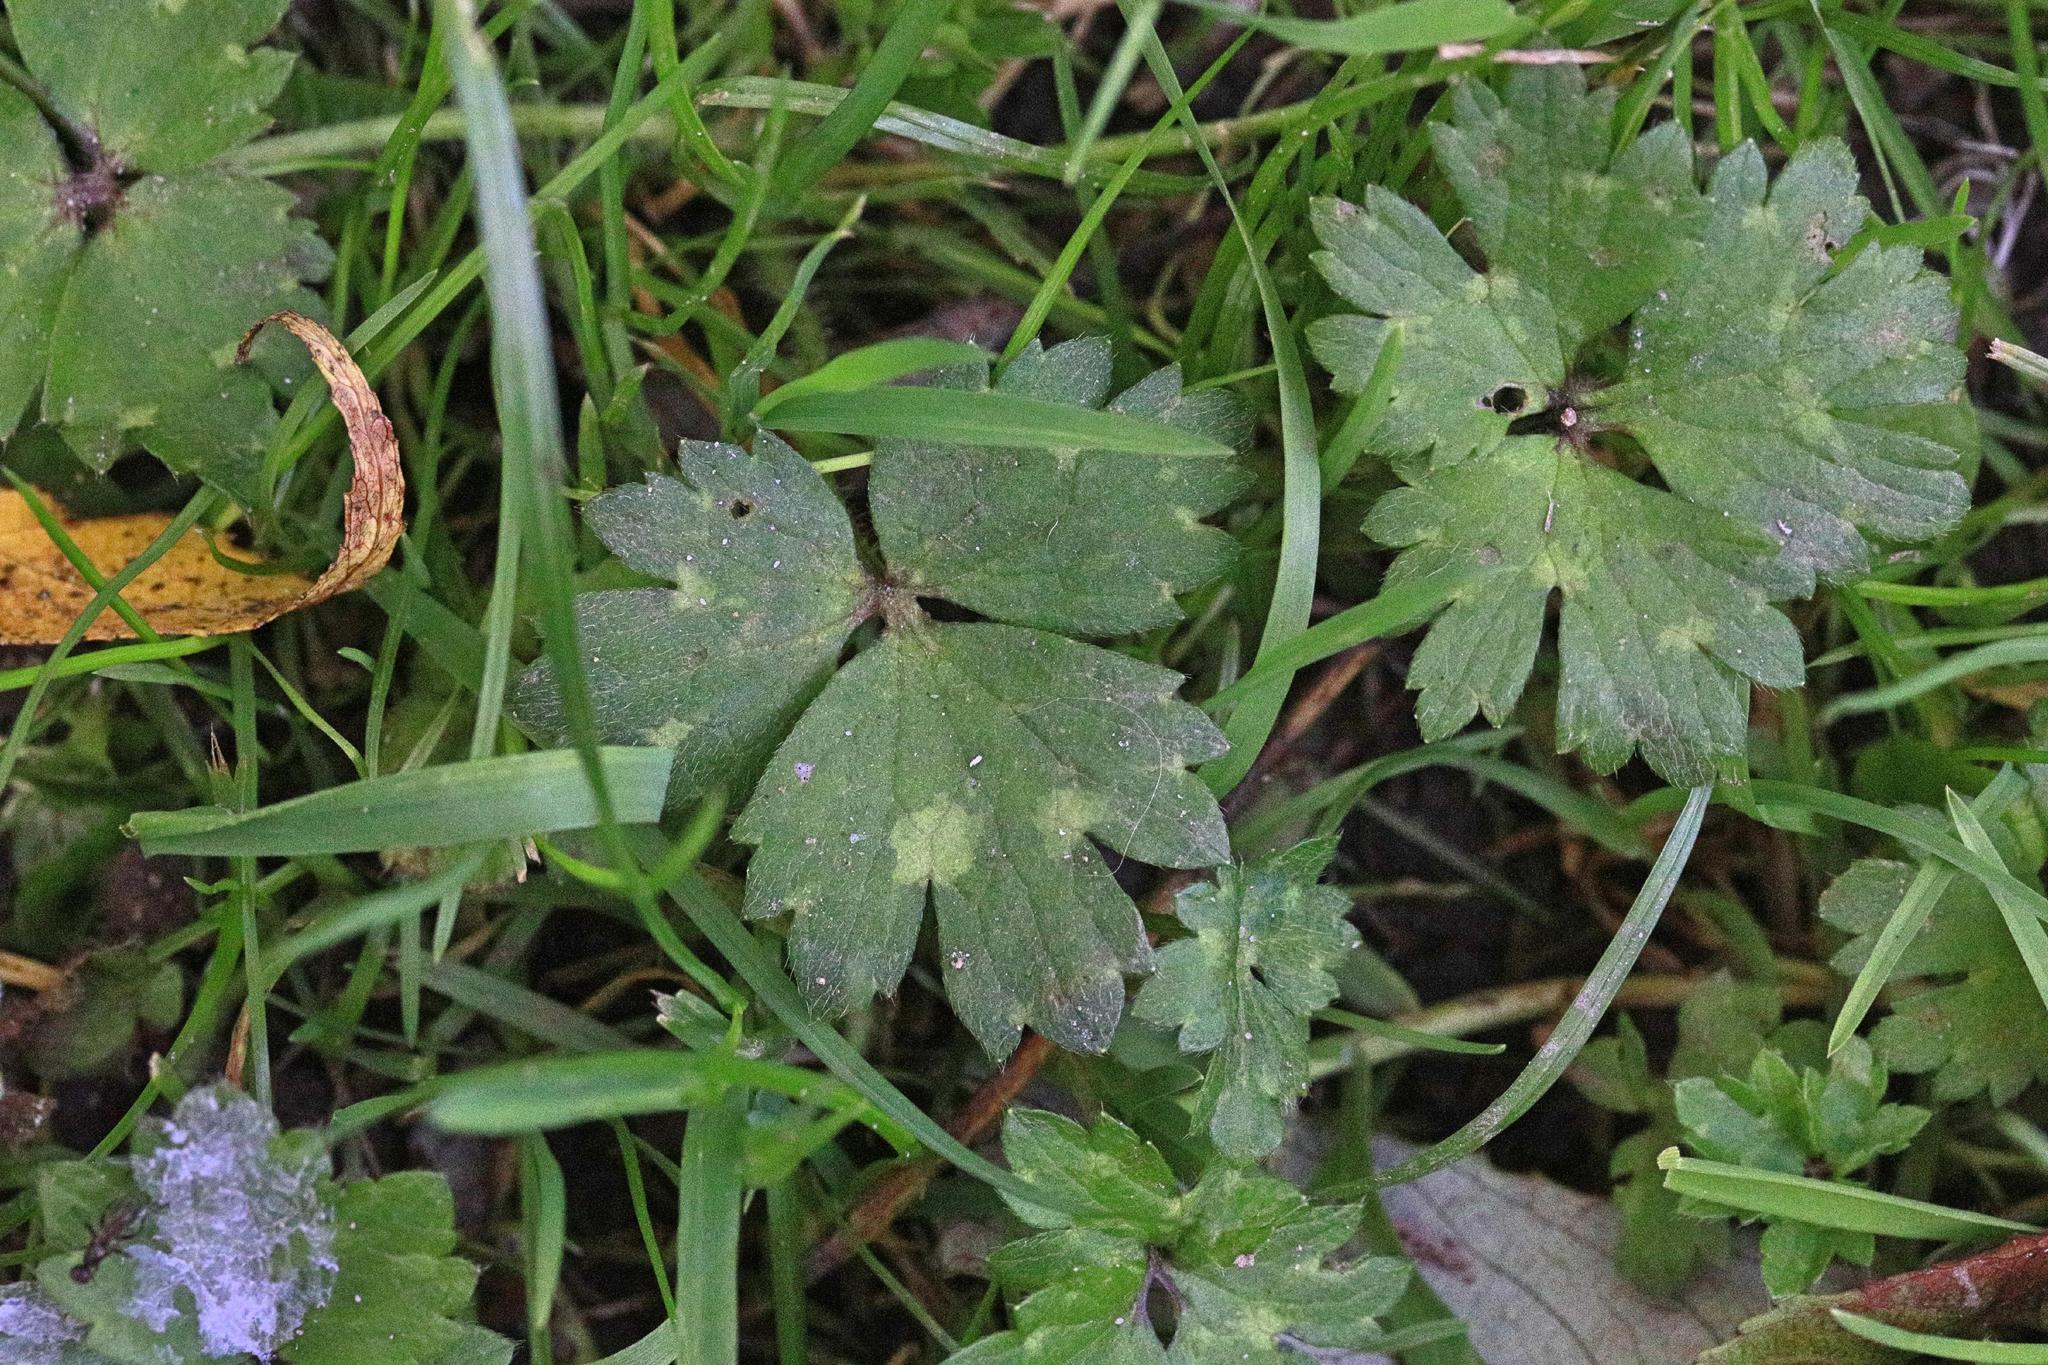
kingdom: Plantae
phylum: Tracheophyta
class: Magnoliopsida
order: Ranunculales
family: Ranunculaceae
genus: Ranunculus
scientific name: Ranunculus repens
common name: Creeping buttercup
